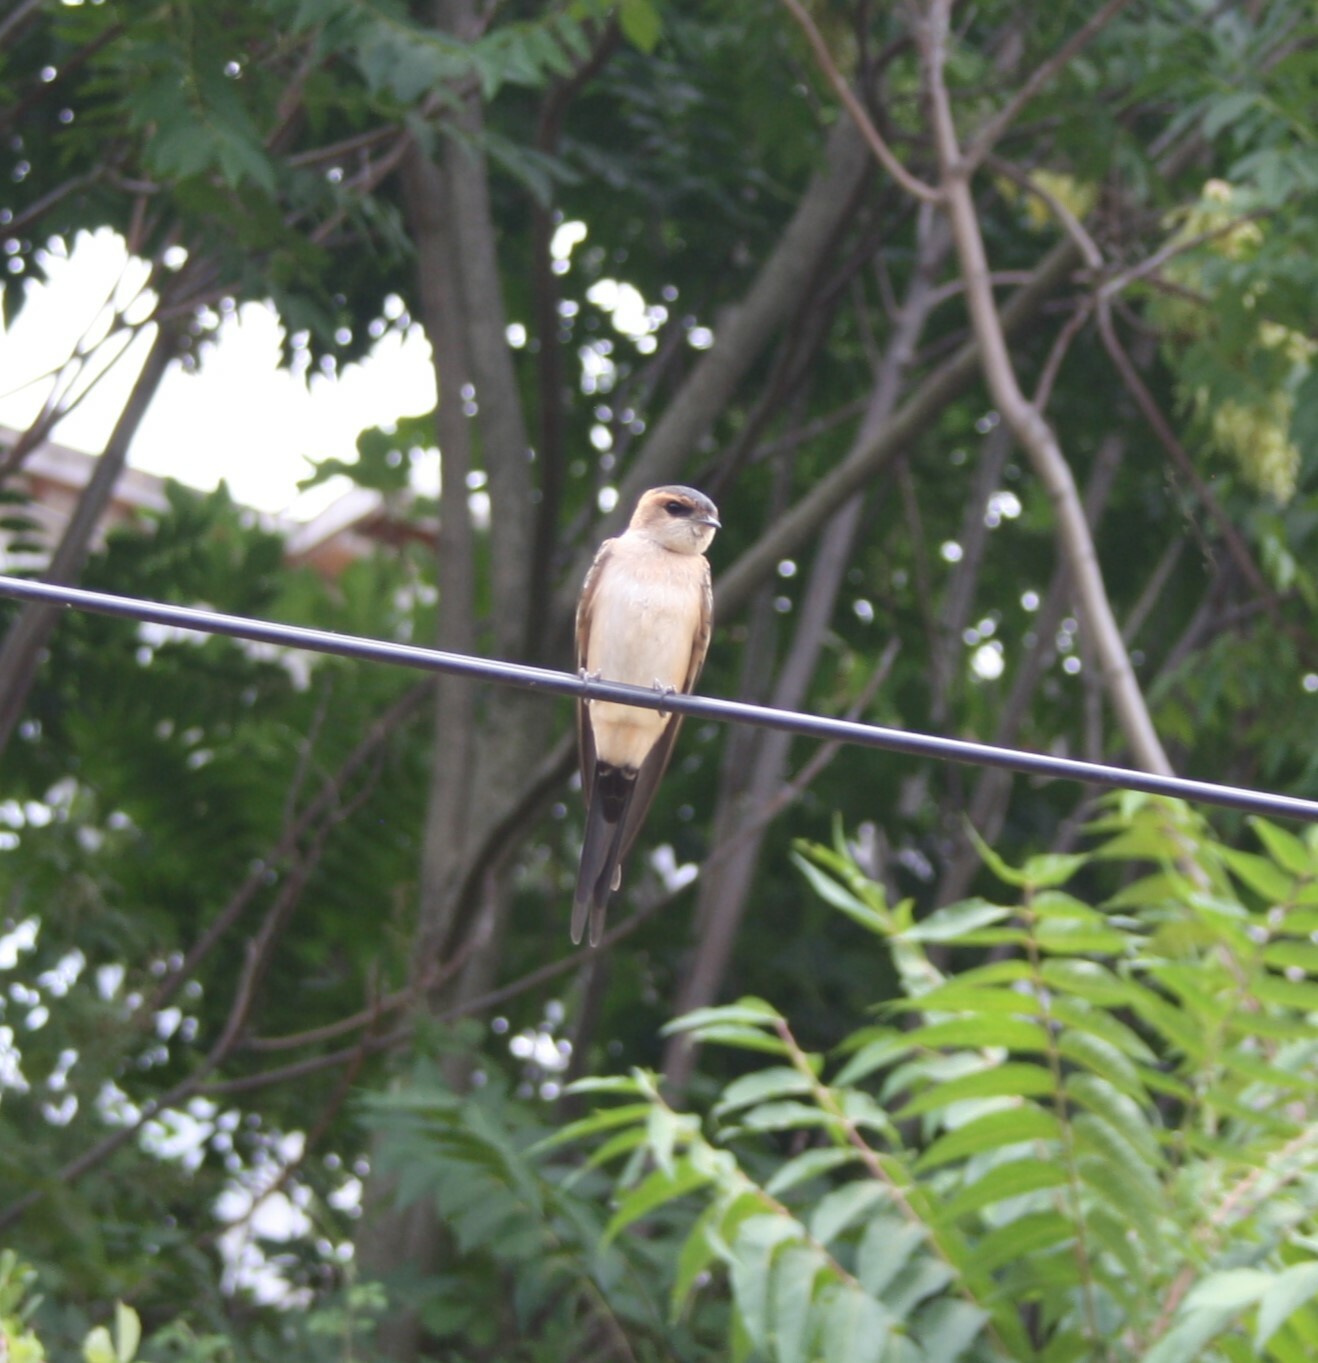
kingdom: Animalia
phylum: Chordata
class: Aves
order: Passeriformes
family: Hirundinidae
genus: Cecropis
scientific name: Cecropis daurica
